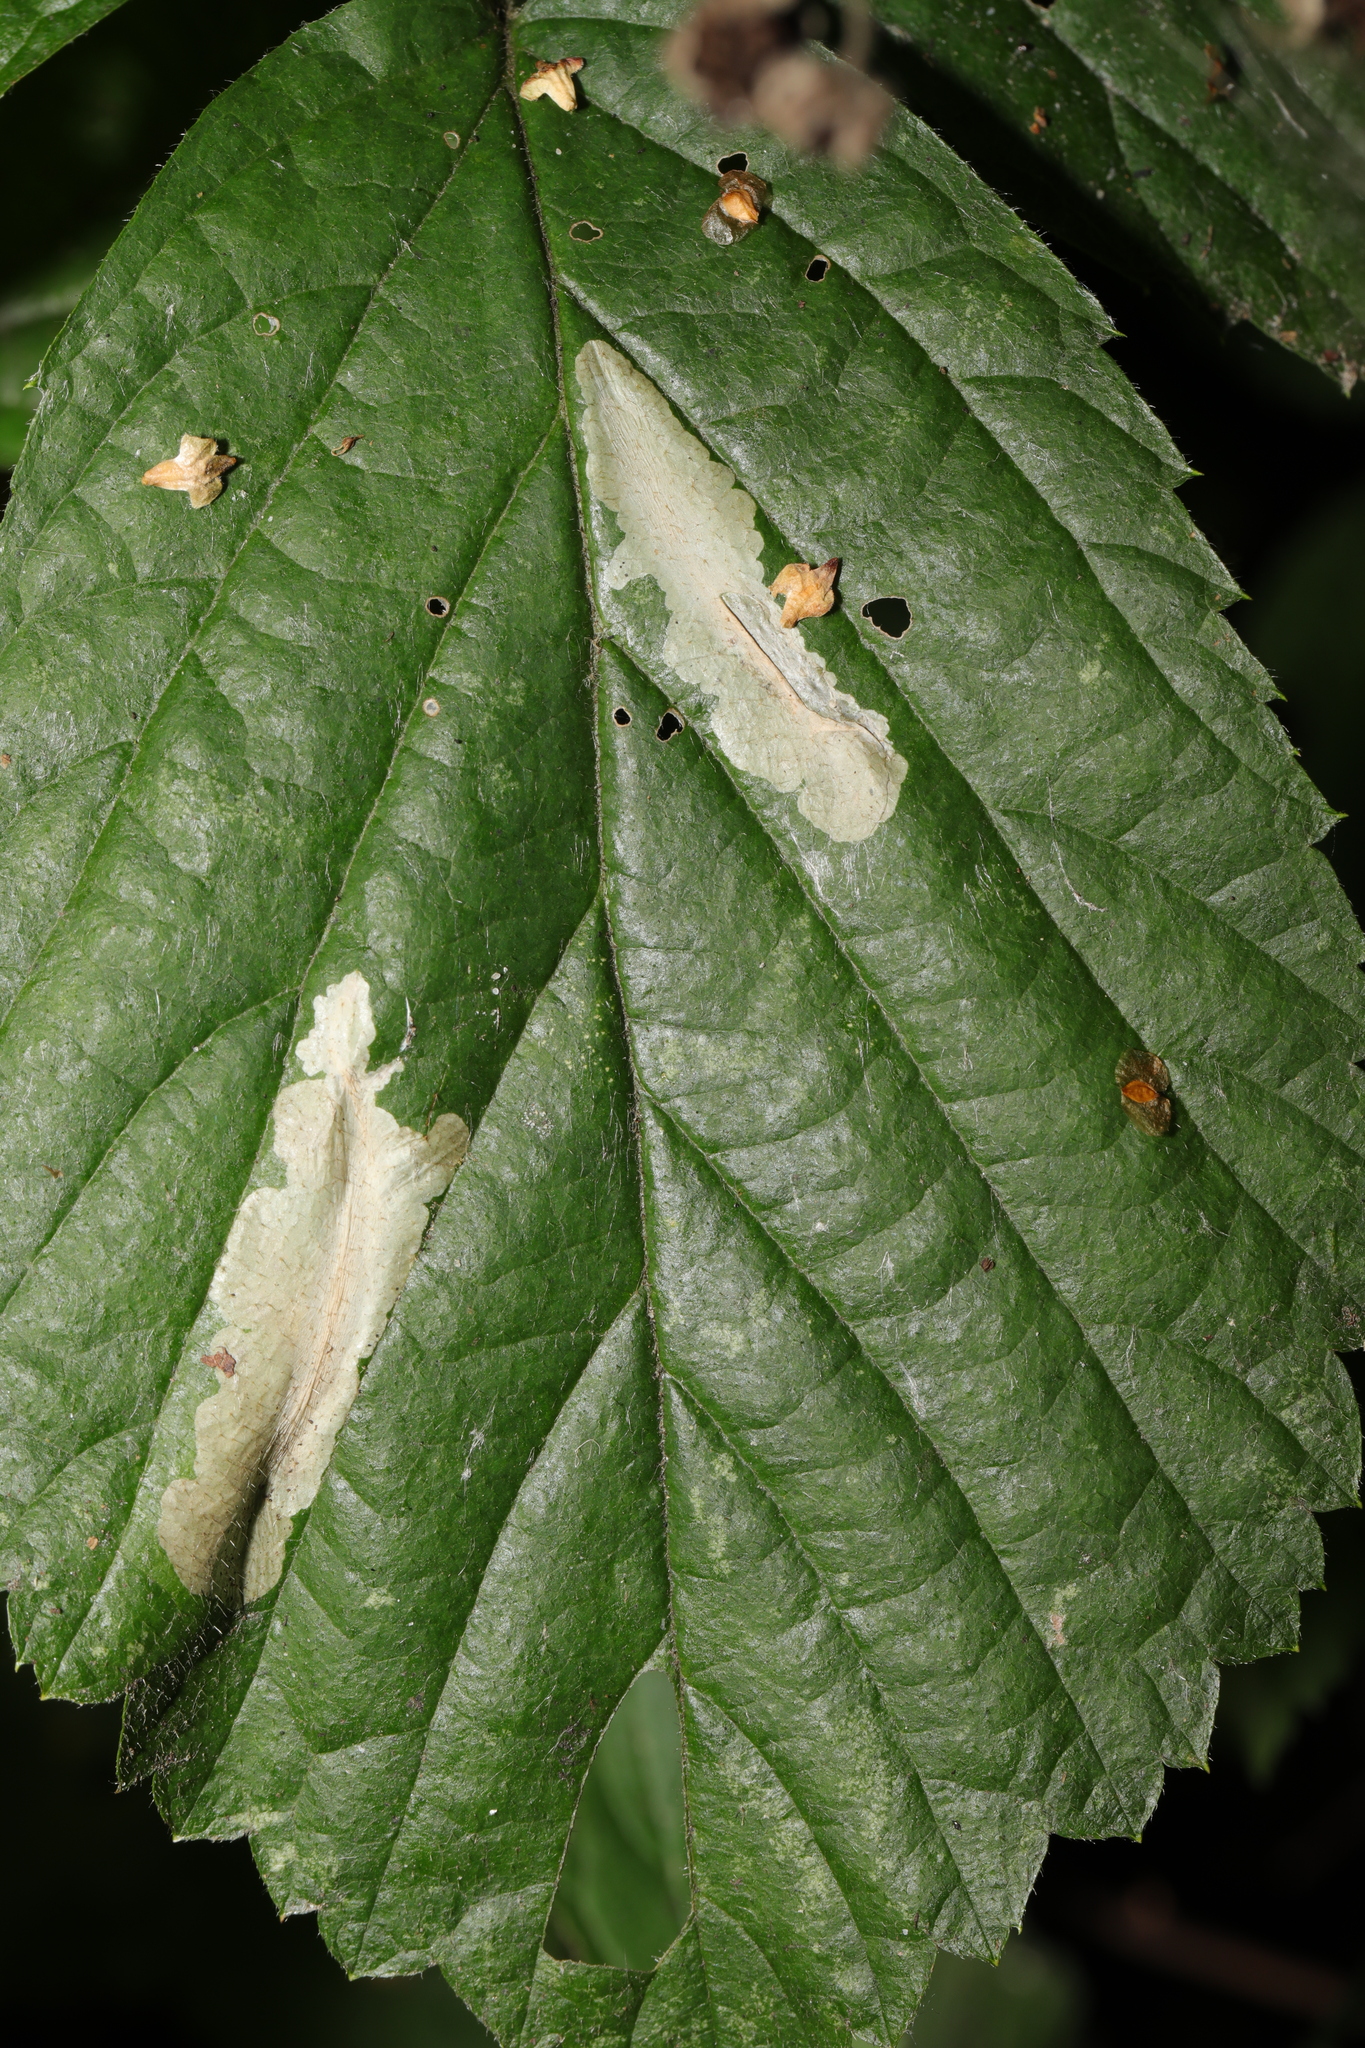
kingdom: Animalia
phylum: Arthropoda
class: Insecta
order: Lepidoptera
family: Gracillariidae
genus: Phyllonorycter
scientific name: Phyllonorycter coryli
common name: Nut-leaf blister moth
